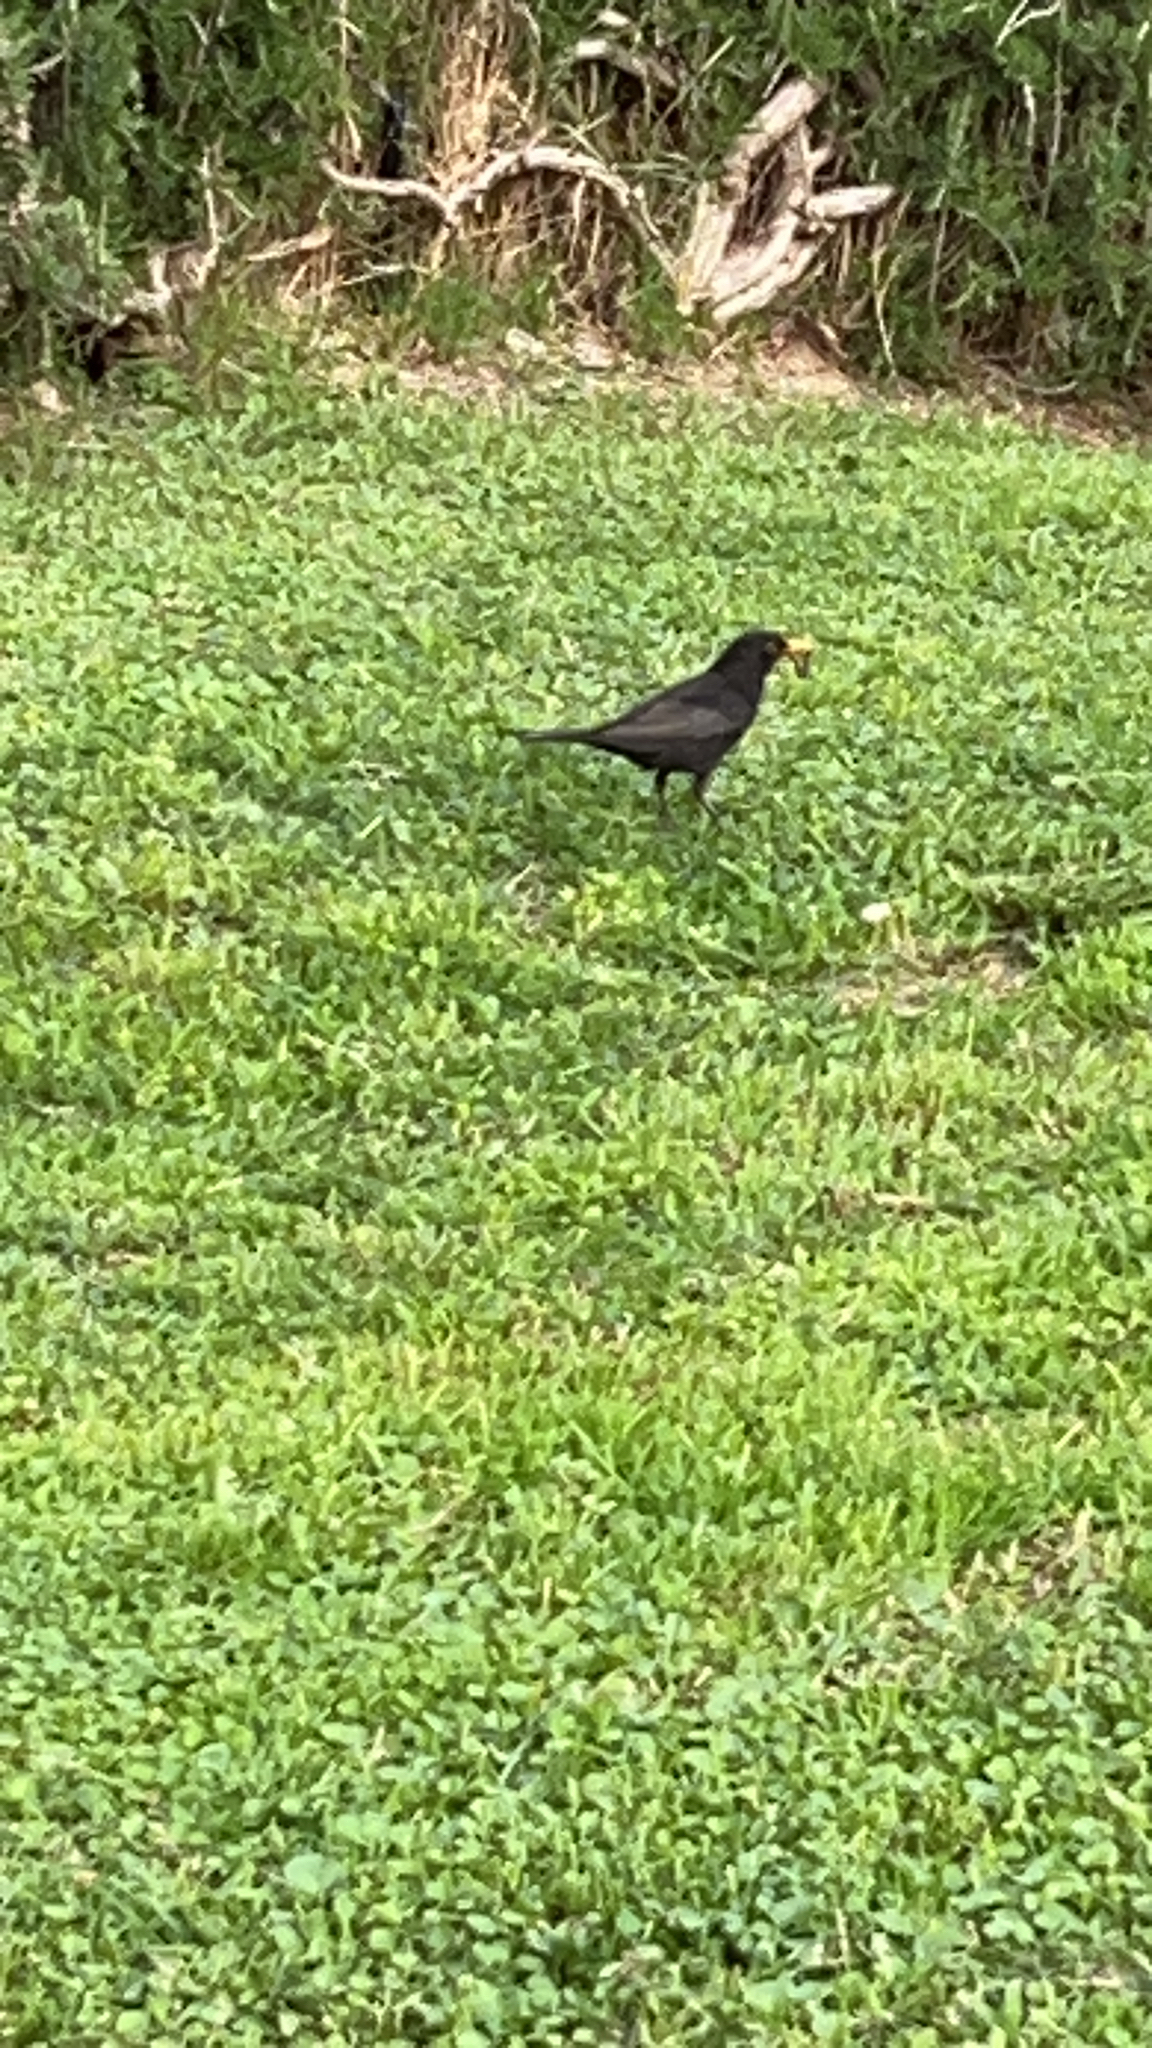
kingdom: Animalia
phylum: Chordata
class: Aves
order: Passeriformes
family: Turdidae
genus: Turdus
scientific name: Turdus merula
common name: Common blackbird
